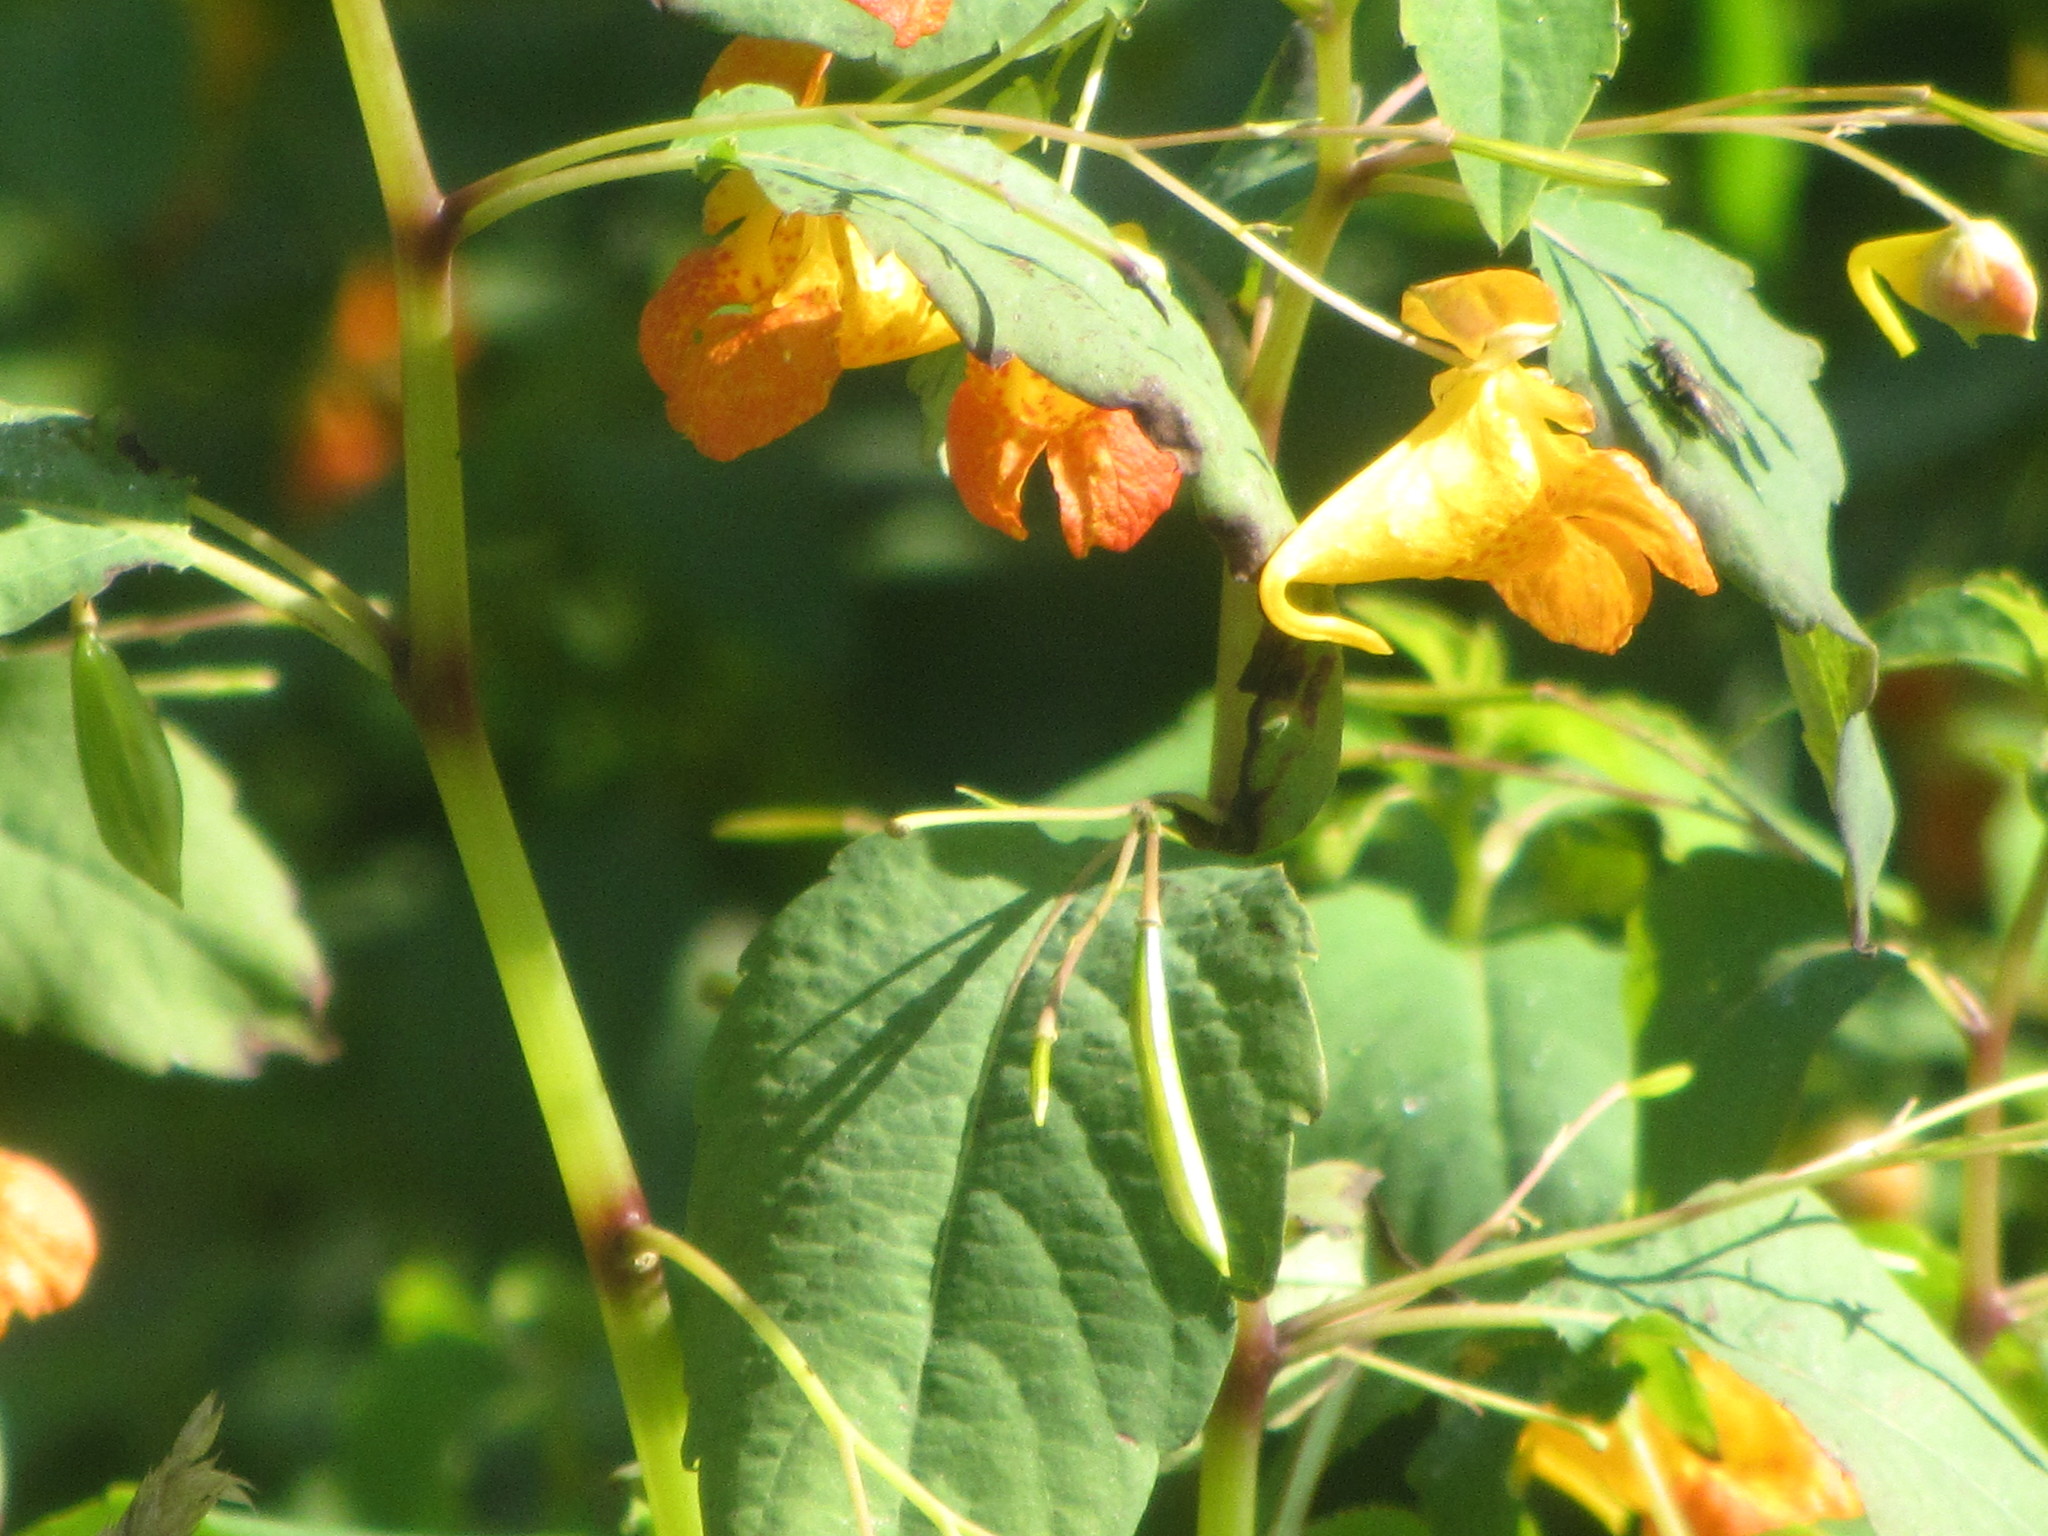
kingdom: Plantae
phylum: Tracheophyta
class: Magnoliopsida
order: Ericales
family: Balsaminaceae
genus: Impatiens
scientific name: Impatiens capensis
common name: Orange balsam
